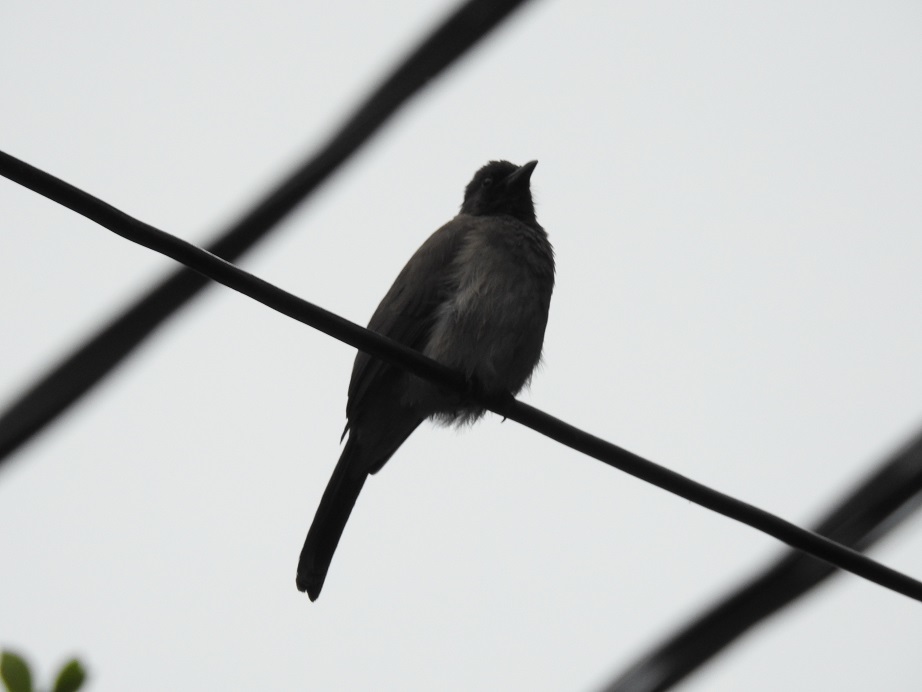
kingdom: Animalia
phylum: Chordata
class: Aves
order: Passeriformes
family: Pycnonotidae
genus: Pycnonotus
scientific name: Pycnonotus barbatus
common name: Common bulbul
